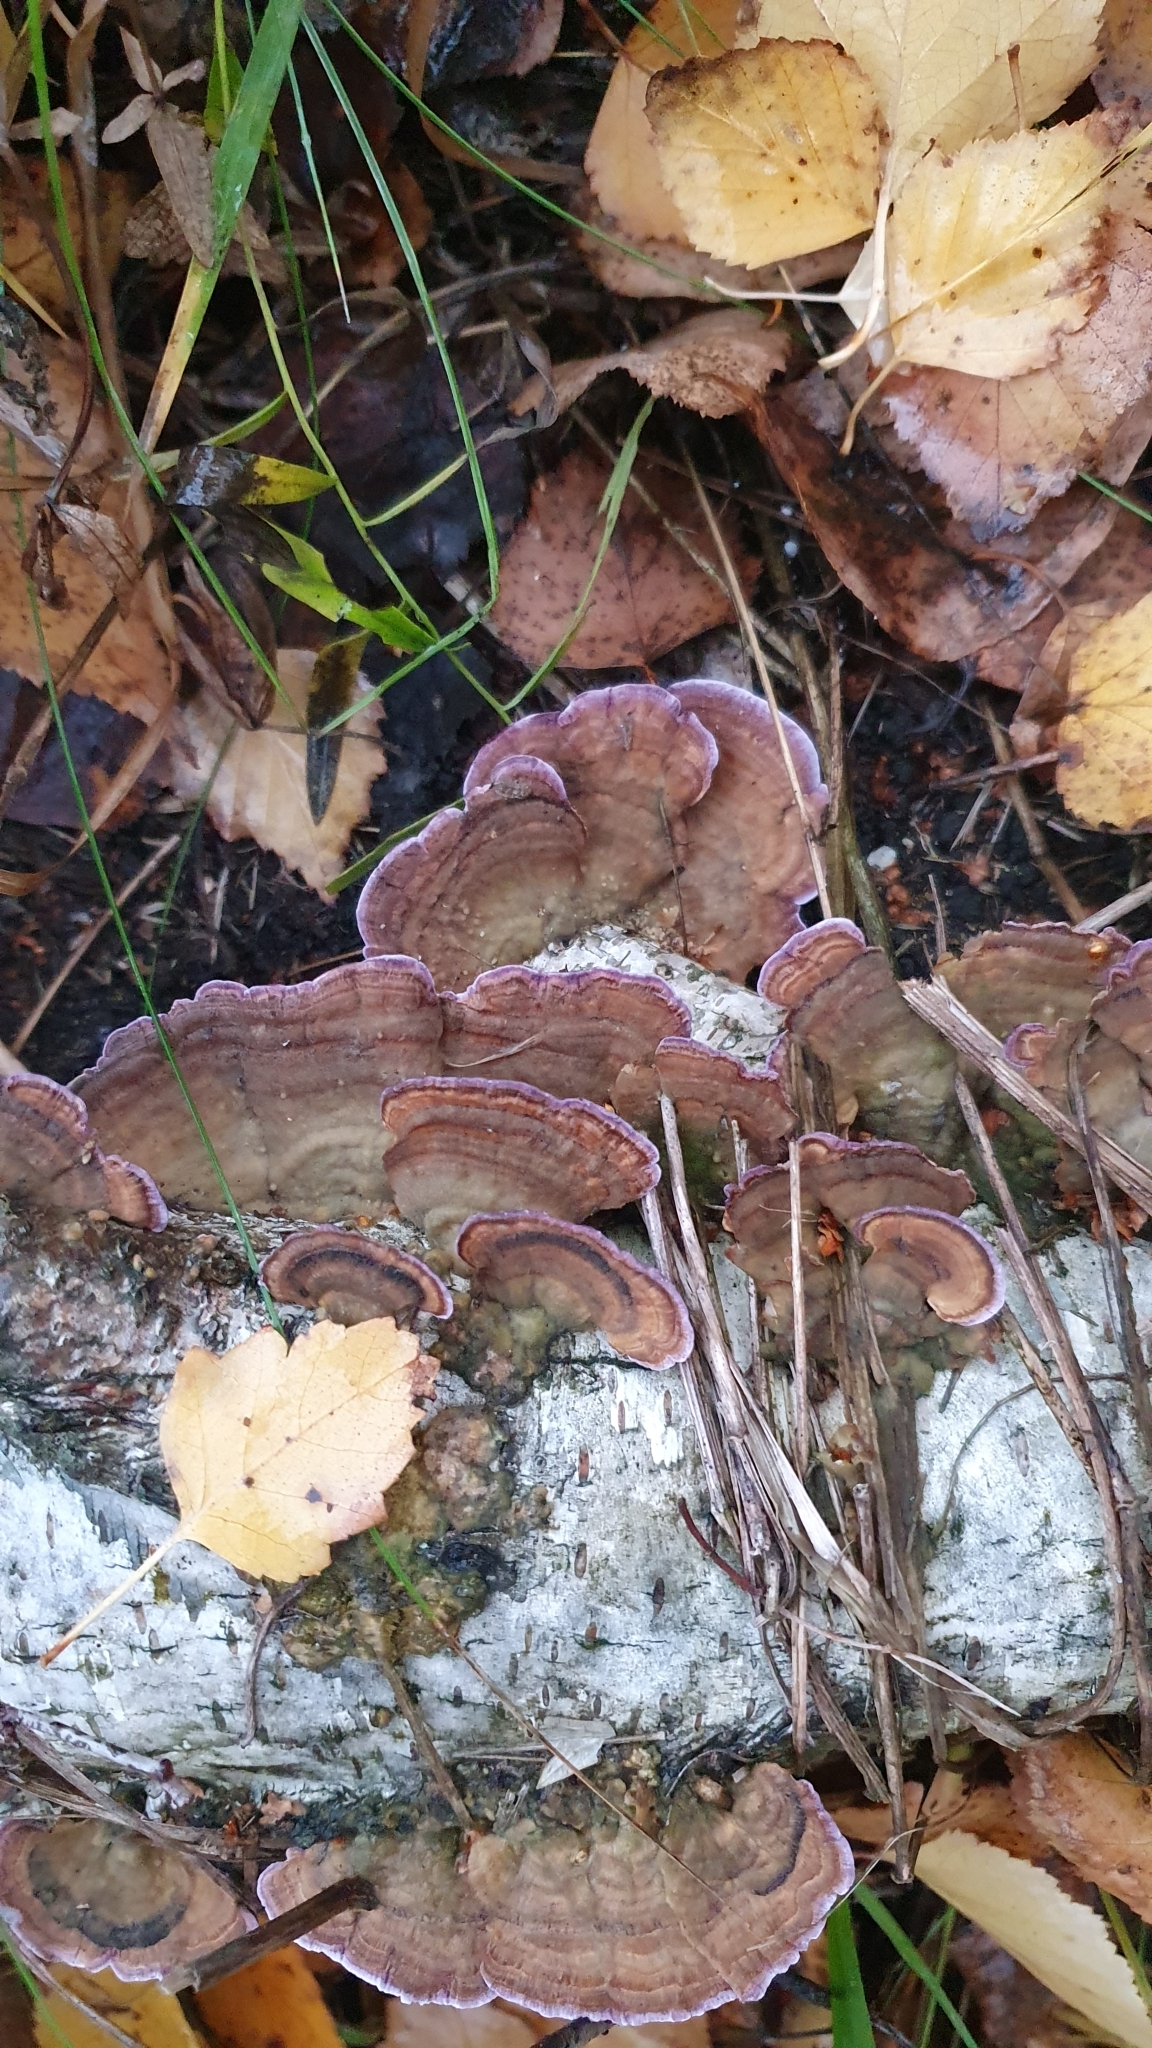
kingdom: Fungi
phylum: Basidiomycota
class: Agaricomycetes
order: Hymenochaetales
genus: Trichaptum
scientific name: Trichaptum biforme
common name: Violet-toothed polypore
